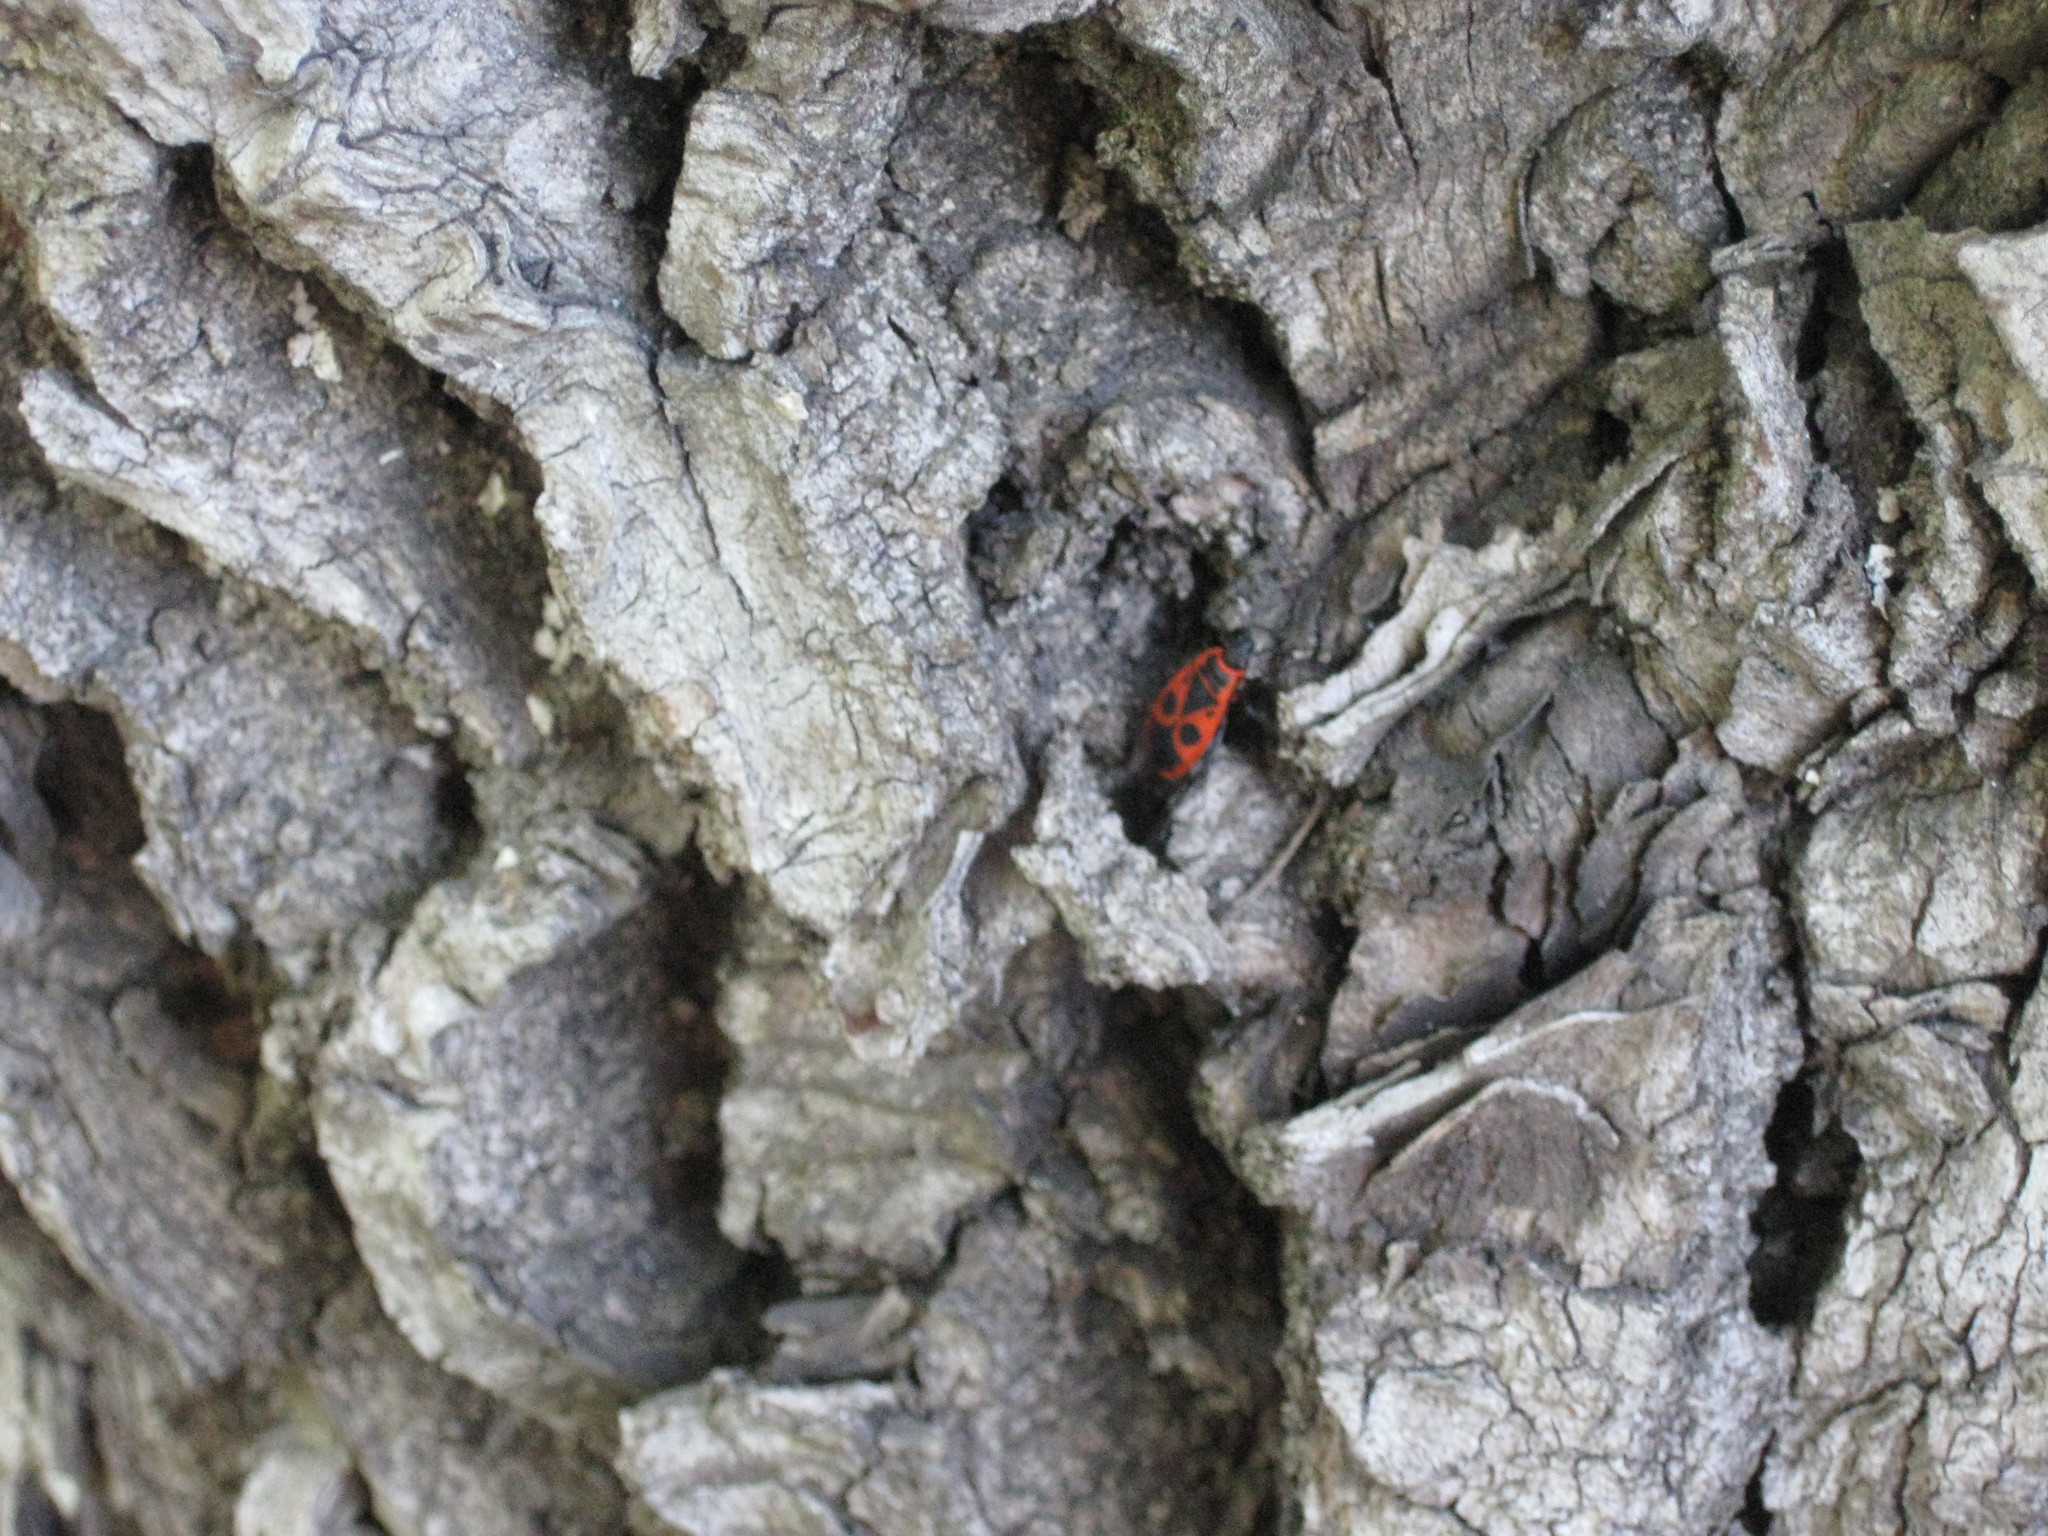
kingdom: Animalia
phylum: Arthropoda
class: Insecta
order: Hemiptera
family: Pyrrhocoridae
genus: Pyrrhocoris
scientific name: Pyrrhocoris apterus
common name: Firebug
